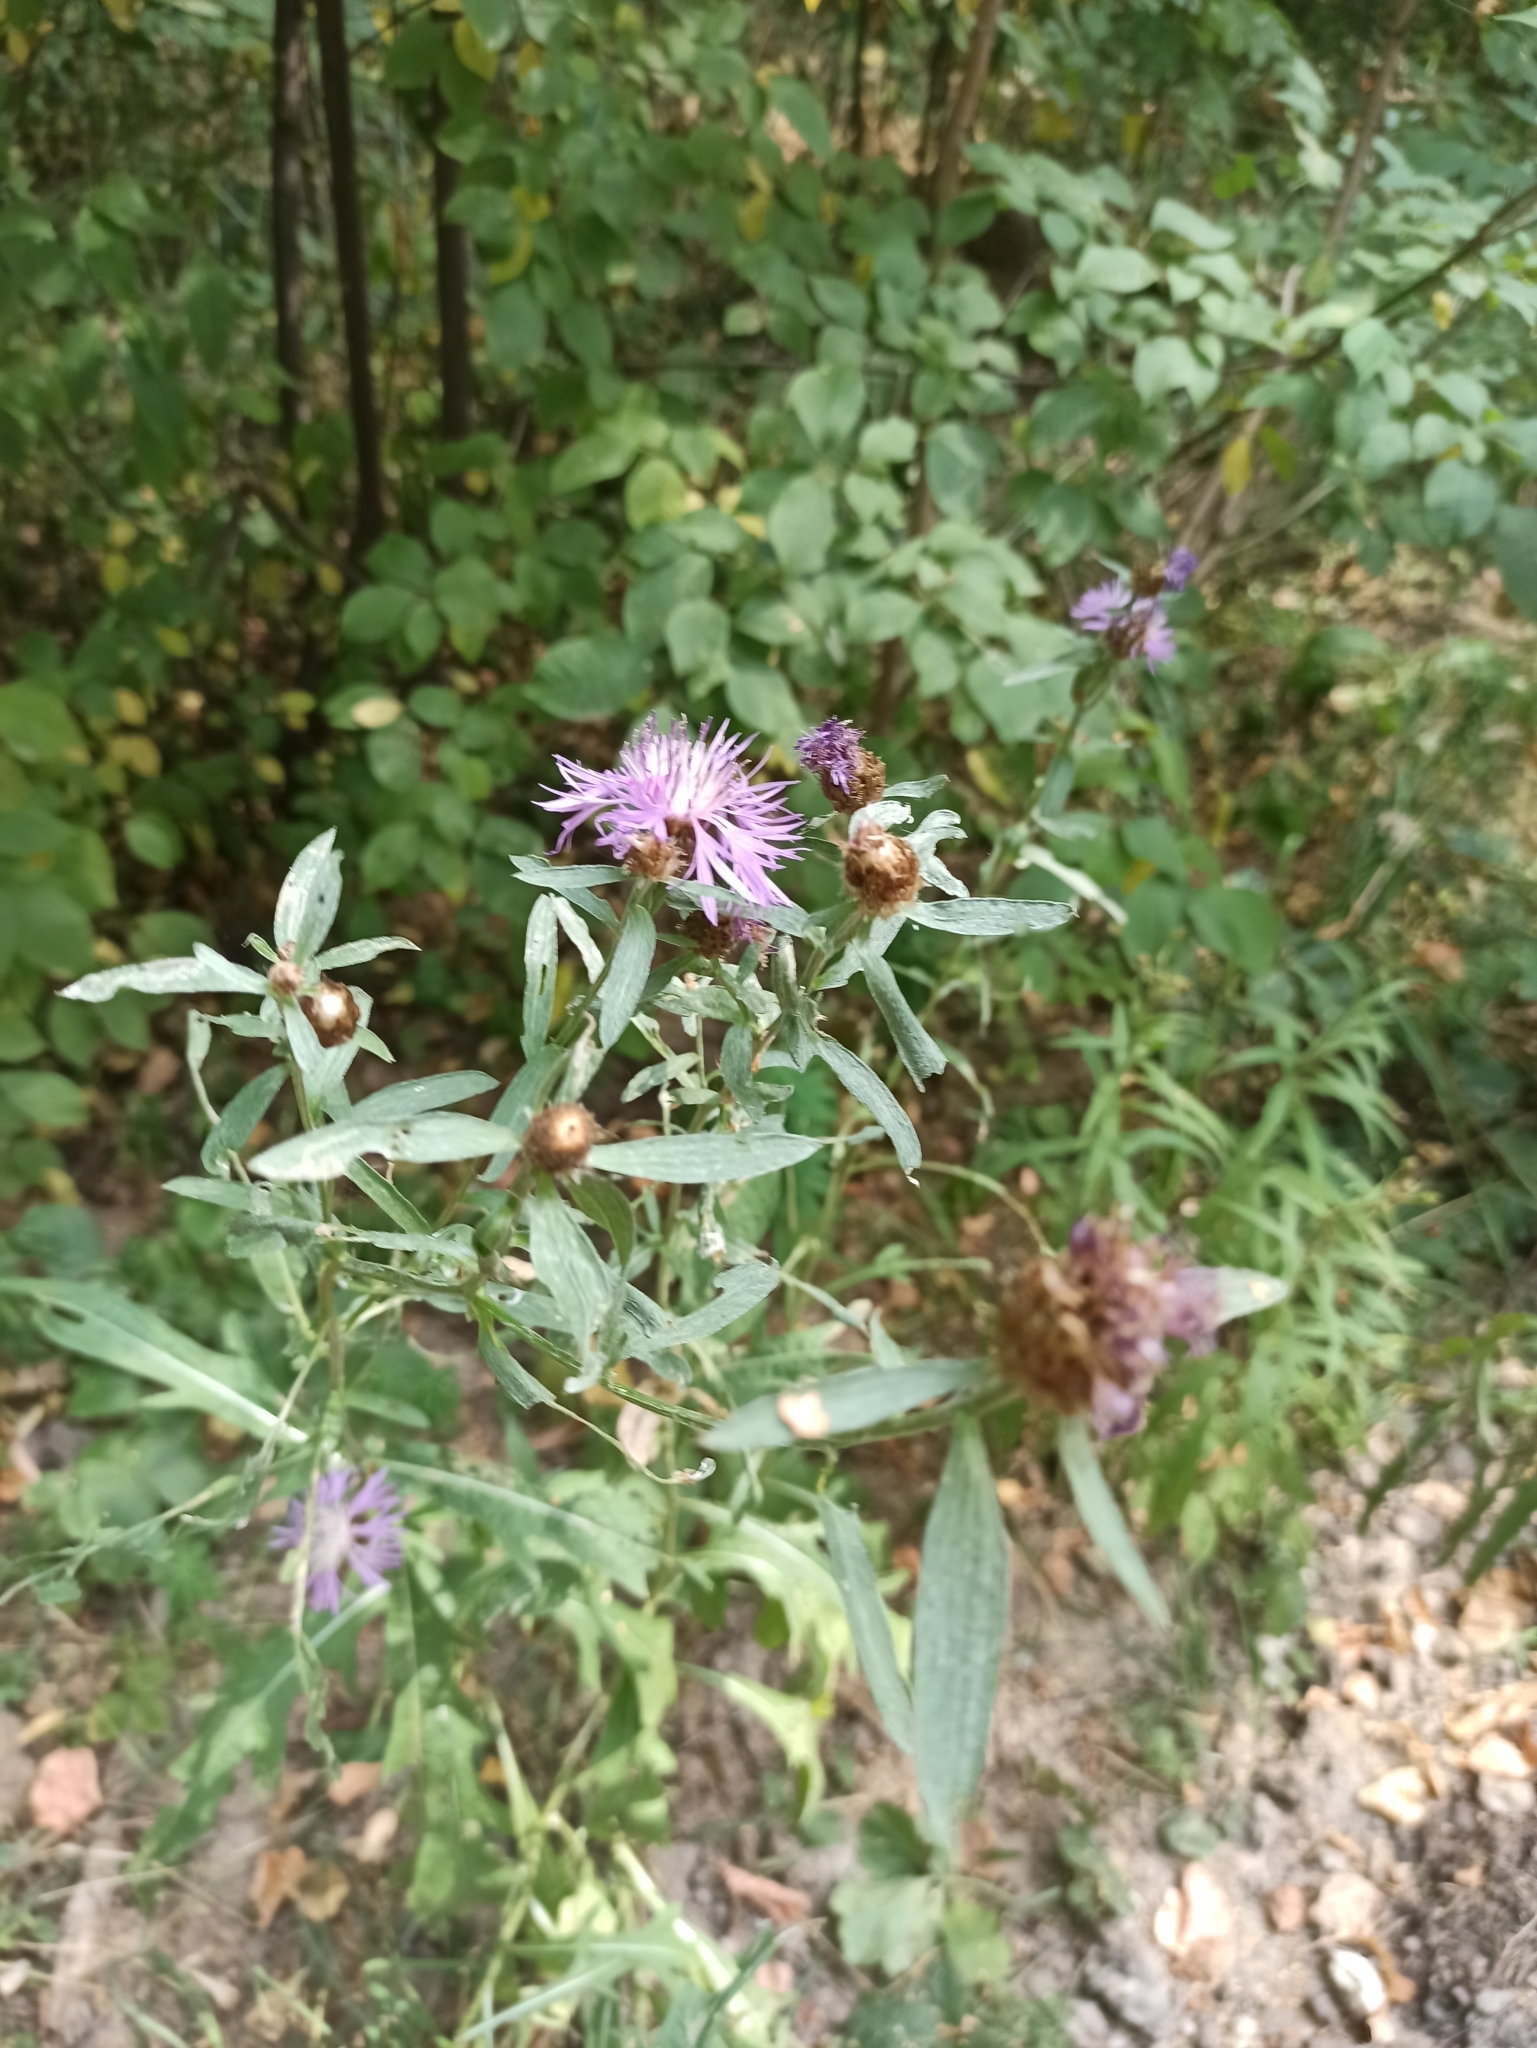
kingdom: Plantae
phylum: Tracheophyta
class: Magnoliopsida
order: Asterales
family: Asteraceae
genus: Centaurea
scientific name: Centaurea jacea
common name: Brown knapweed
